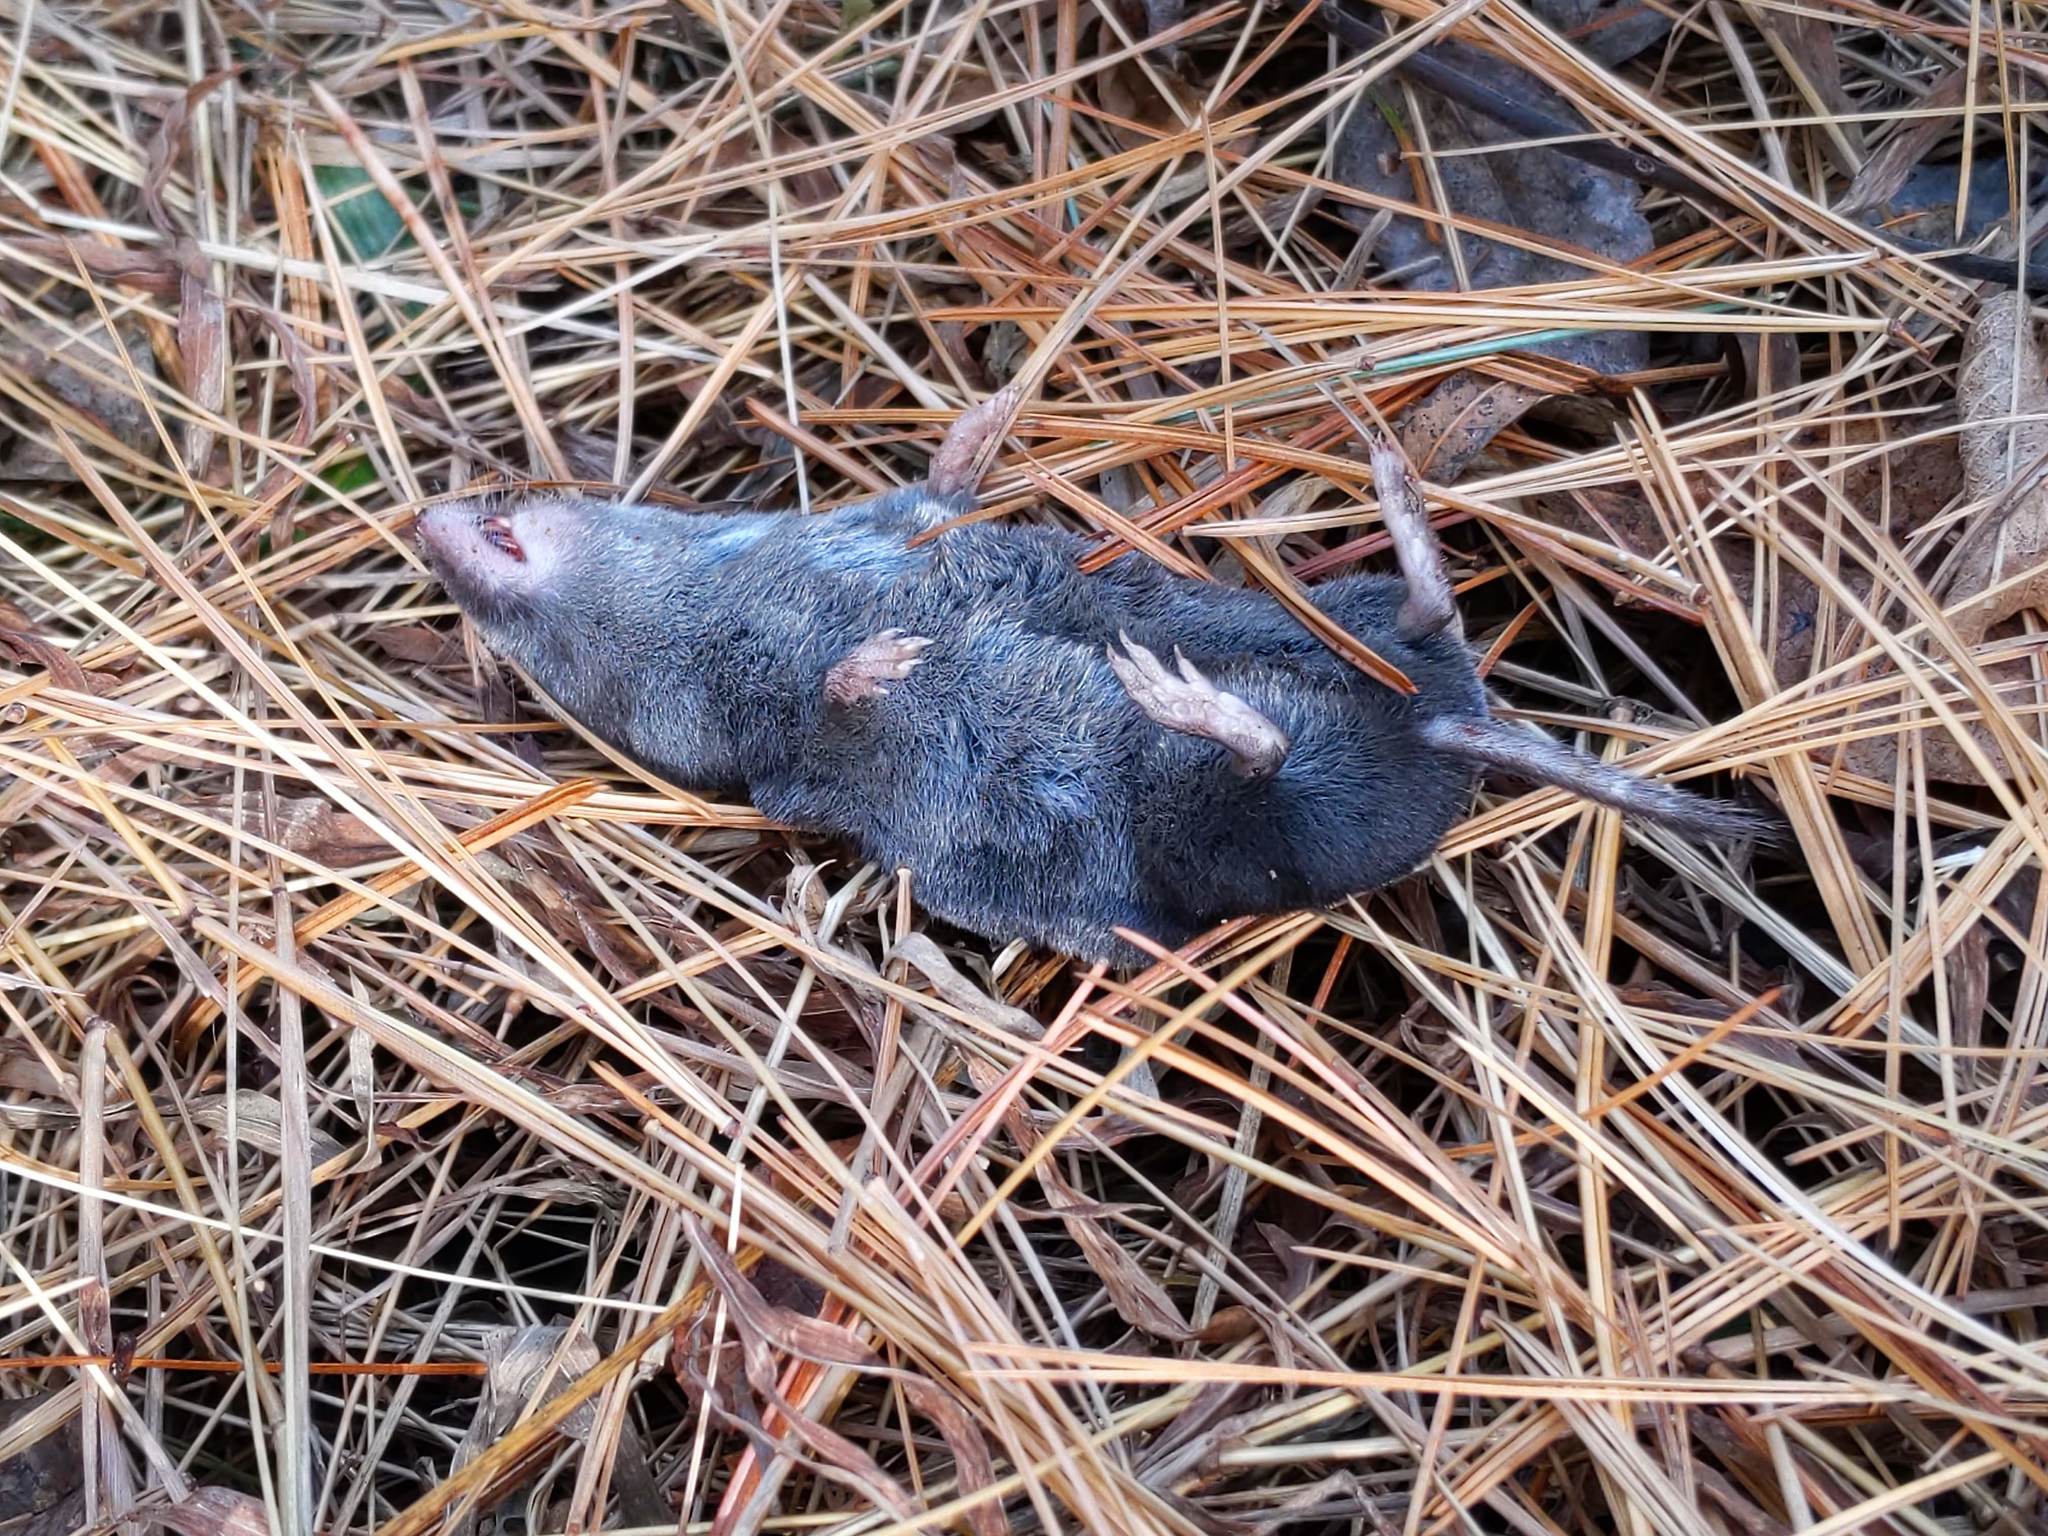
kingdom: Animalia
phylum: Chordata
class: Mammalia
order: Soricomorpha
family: Soricidae
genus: Blarina
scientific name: Blarina brevicauda
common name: Northern short-tailed shrew
